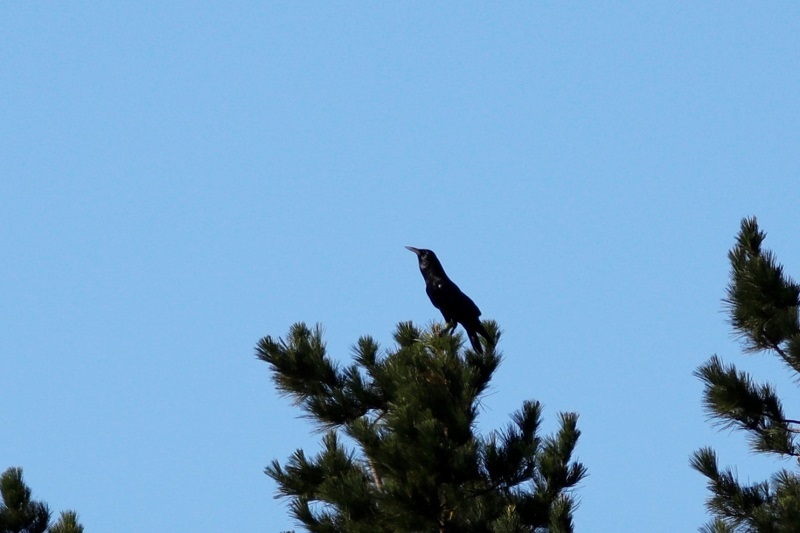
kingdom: Animalia
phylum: Chordata
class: Aves
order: Passeriformes
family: Corvidae
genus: Corvus
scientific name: Corvus capensis
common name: Cape crow
